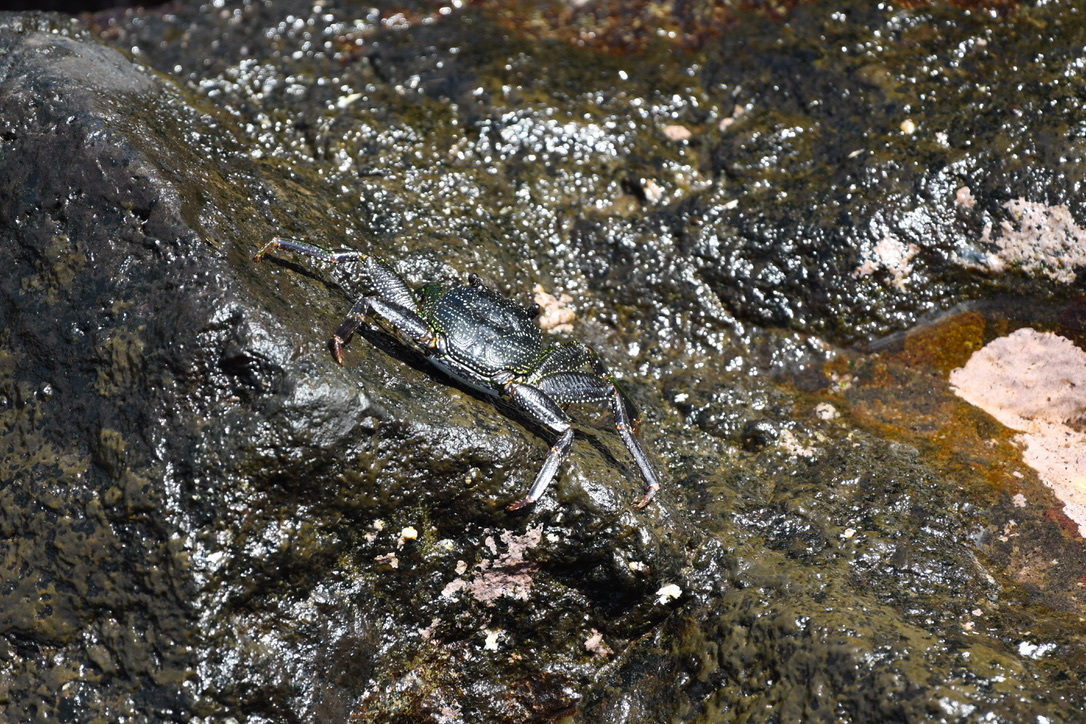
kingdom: Animalia
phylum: Arthropoda
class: Malacostraca
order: Decapoda
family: Grapsidae
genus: Grapsus
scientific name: Grapsus tenuicrustatus
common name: Natal lightfoot crab
